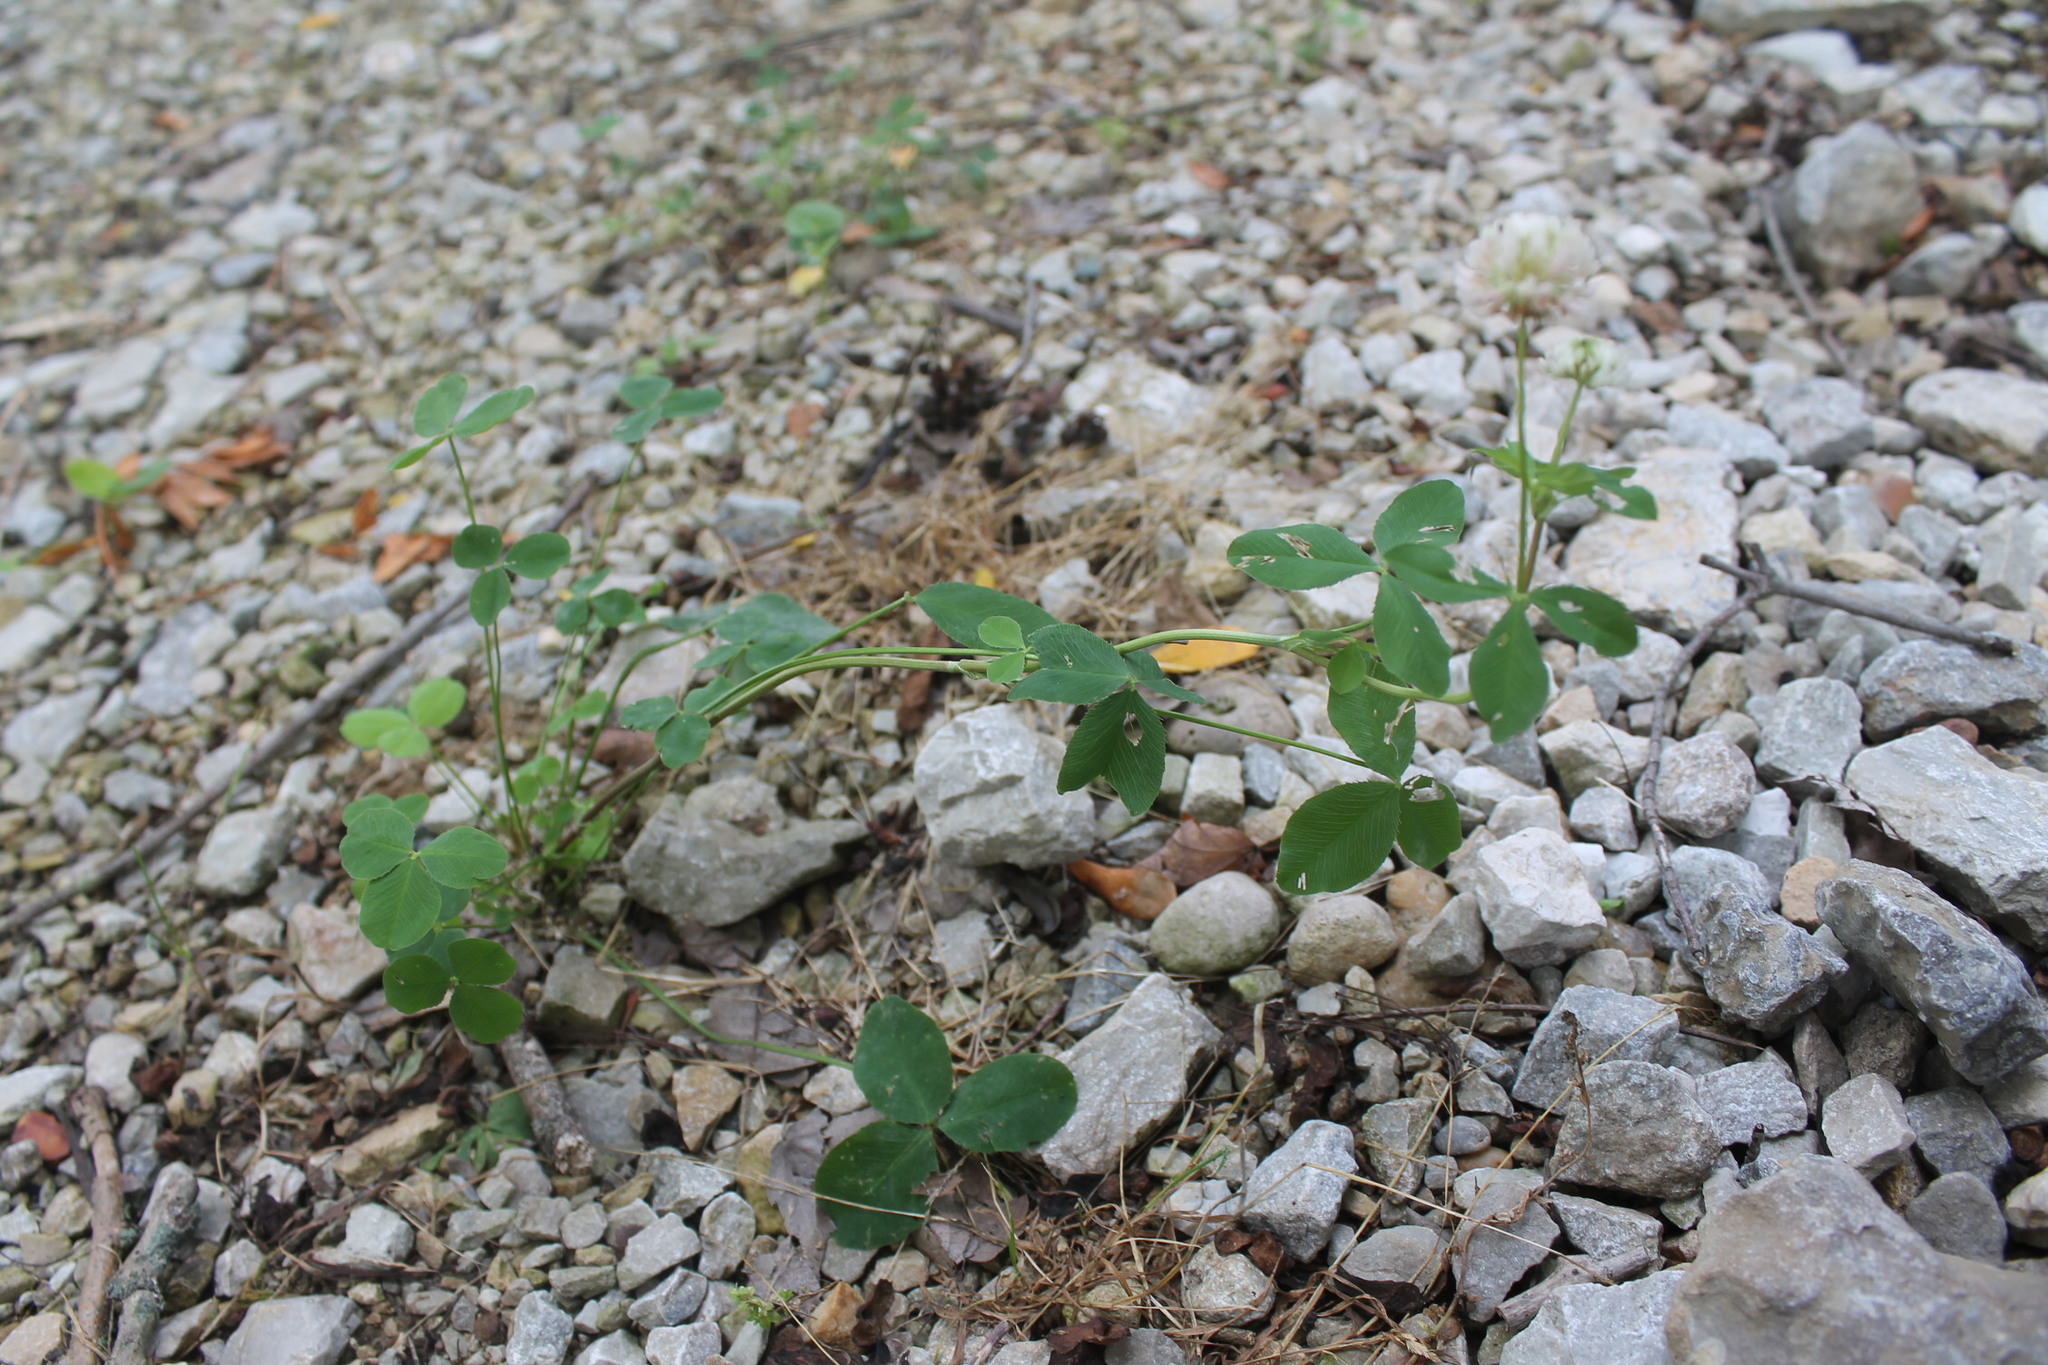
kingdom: Plantae
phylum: Tracheophyta
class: Magnoliopsida
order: Fabales
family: Fabaceae
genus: Trifolium
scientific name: Trifolium hybridum
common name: Alsike clover
